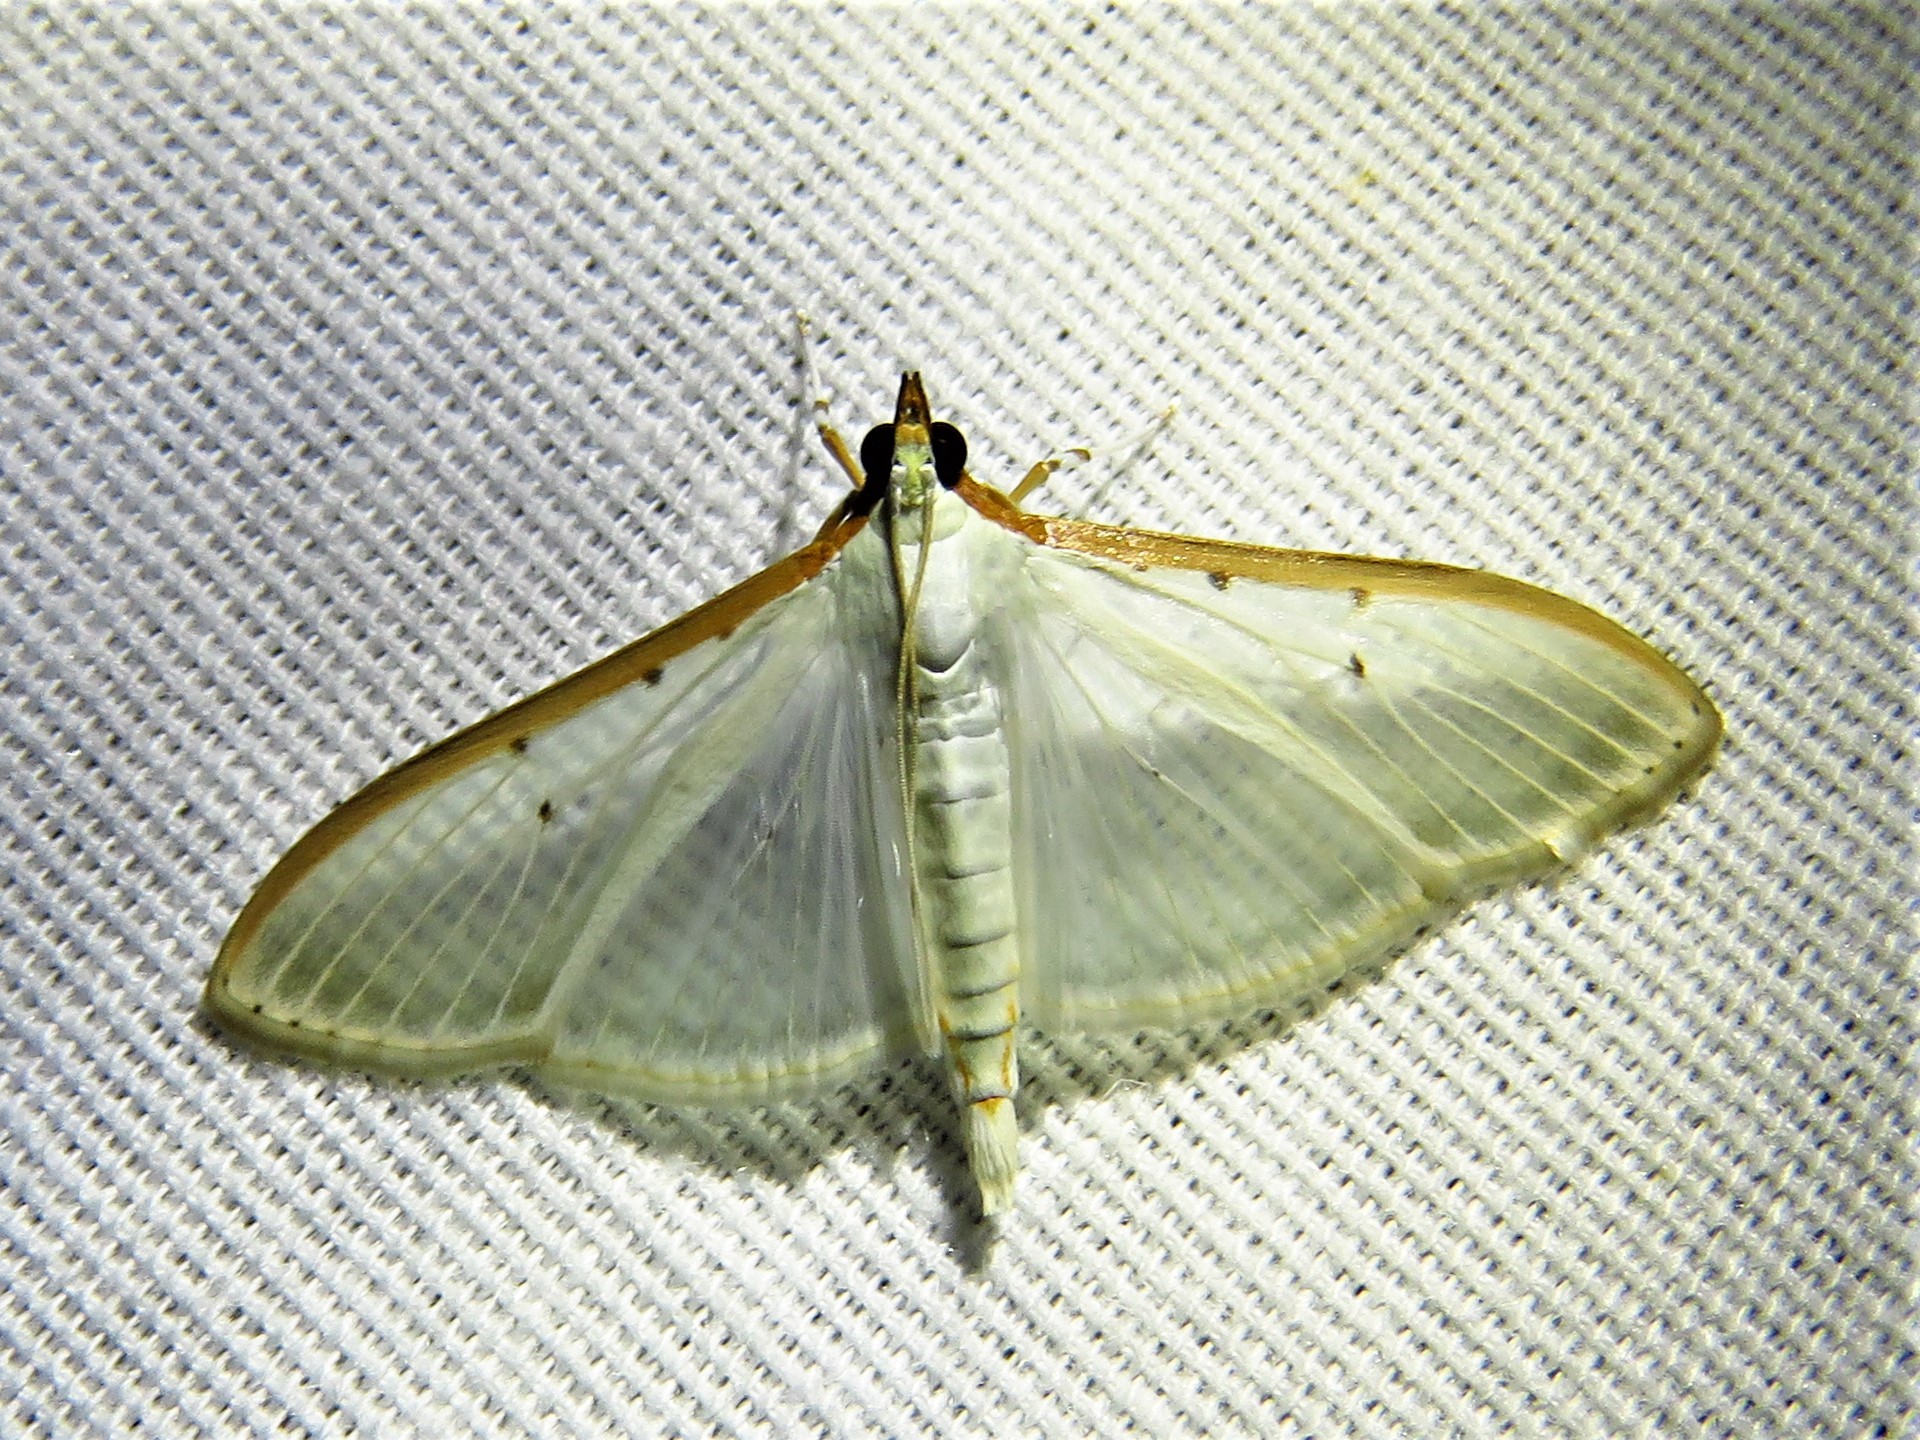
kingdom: Animalia
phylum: Arthropoda
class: Insecta
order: Lepidoptera
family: Crambidae
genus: Palpita
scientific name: Palpita quadristigmalis
